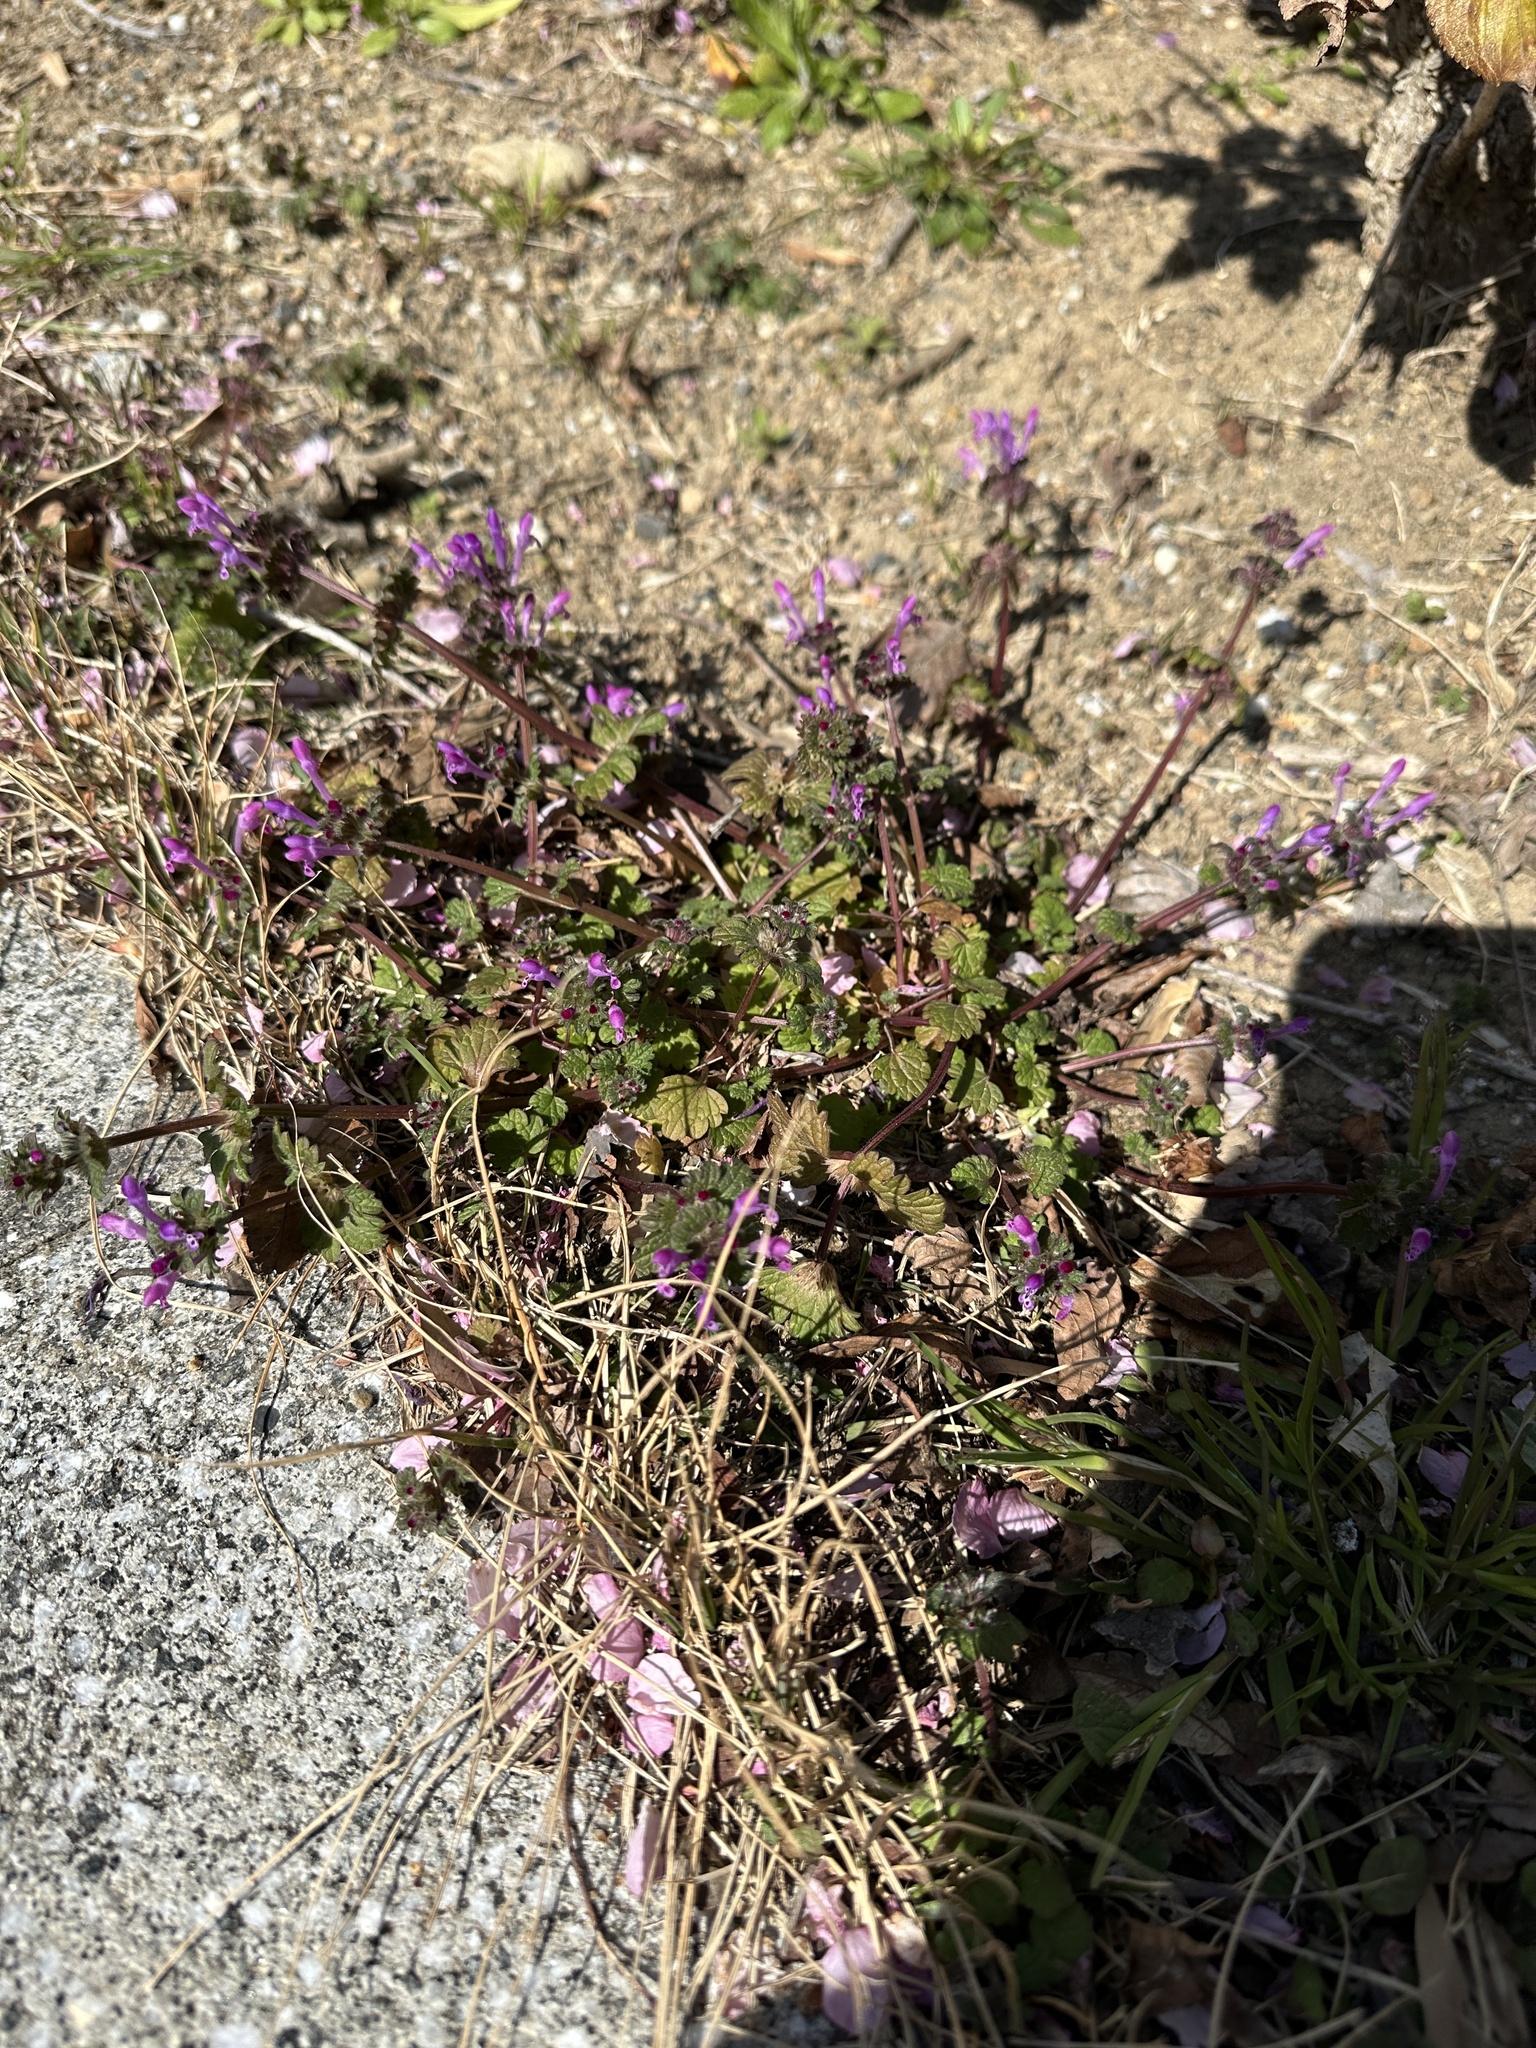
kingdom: Plantae
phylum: Tracheophyta
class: Magnoliopsida
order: Lamiales
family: Lamiaceae
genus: Lamium
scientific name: Lamium amplexicaule
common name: Henbit dead-nettle
